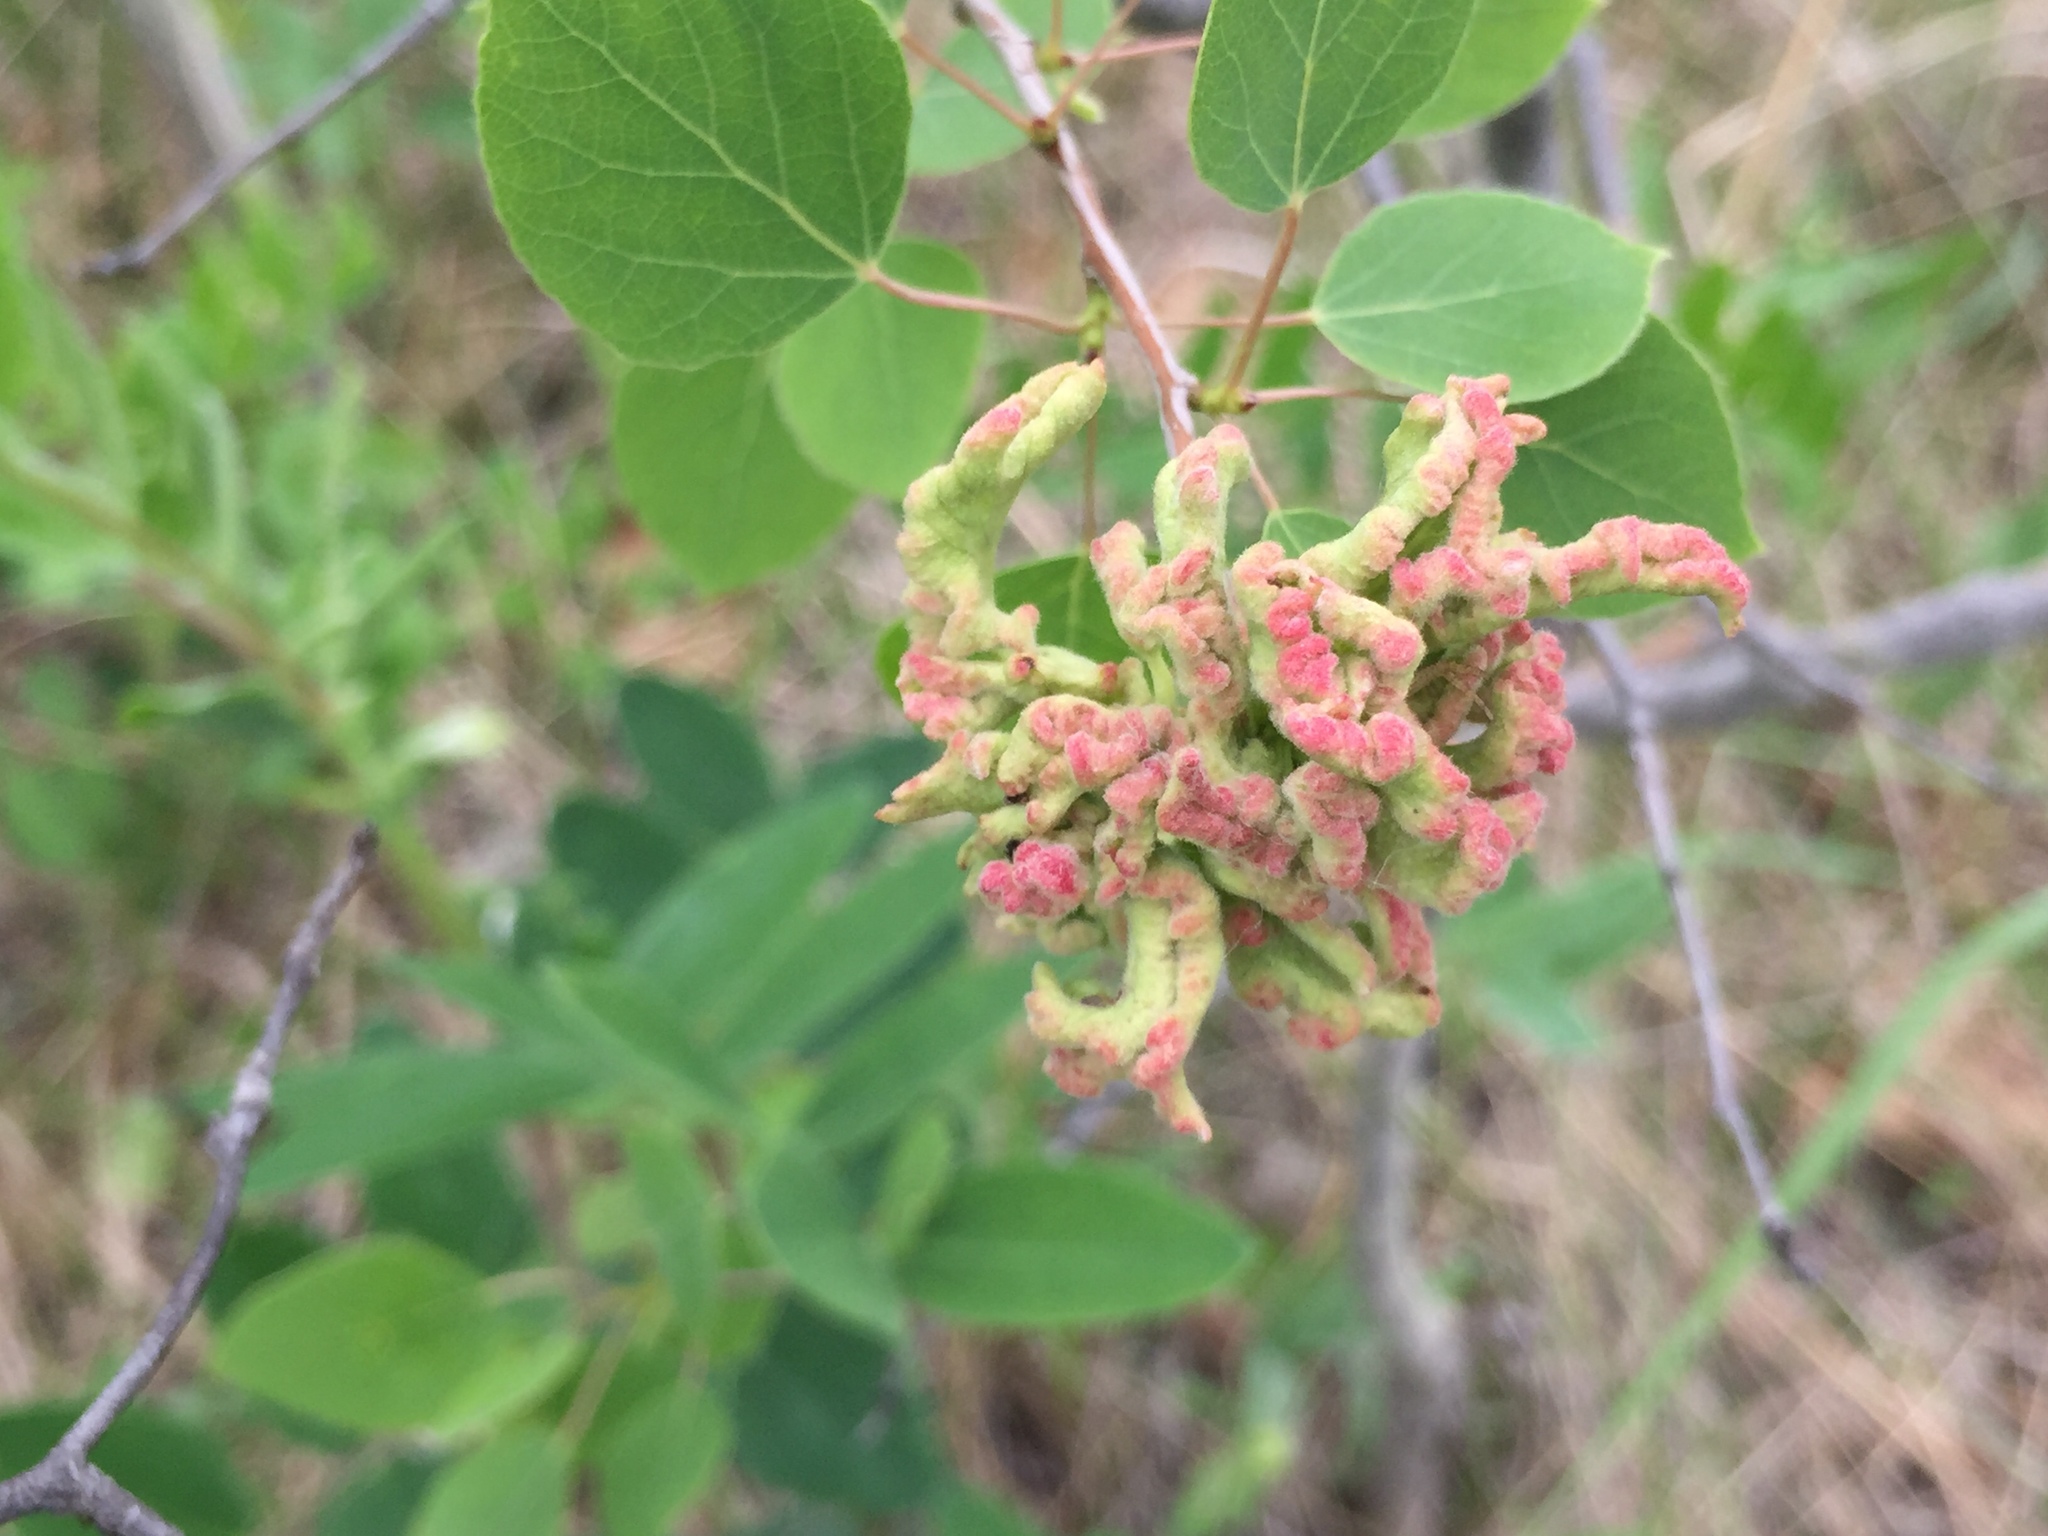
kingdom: Animalia
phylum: Arthropoda
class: Arachnida
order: Trombidiformes
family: Eriophyidae
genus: Aceria
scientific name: Aceria dispar
